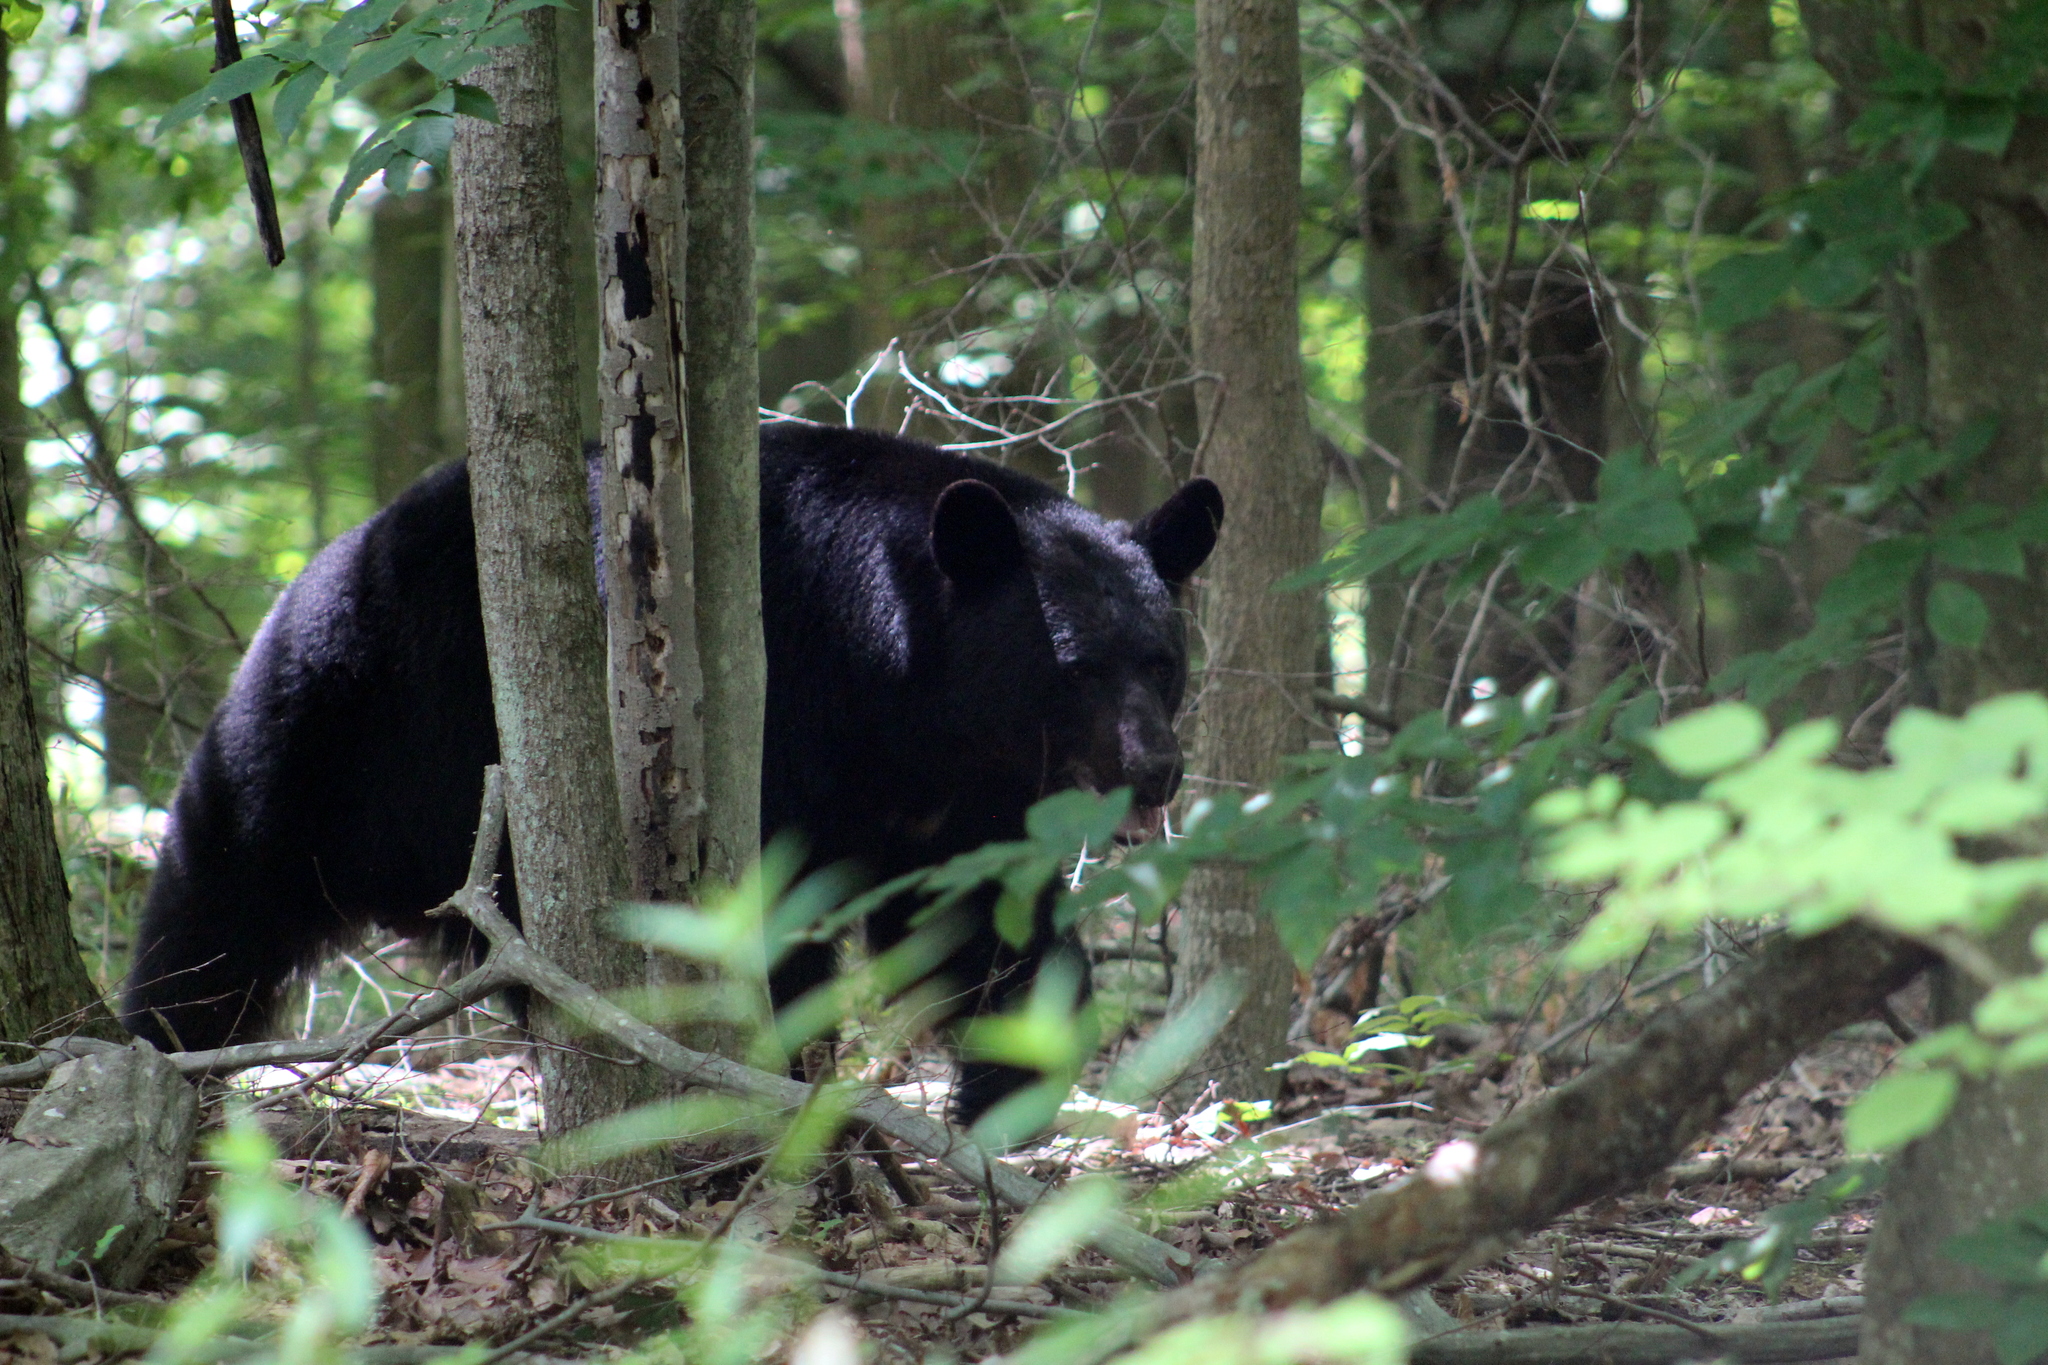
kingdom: Animalia
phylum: Chordata
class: Mammalia
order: Carnivora
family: Ursidae
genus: Ursus
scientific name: Ursus americanus
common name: American black bear
